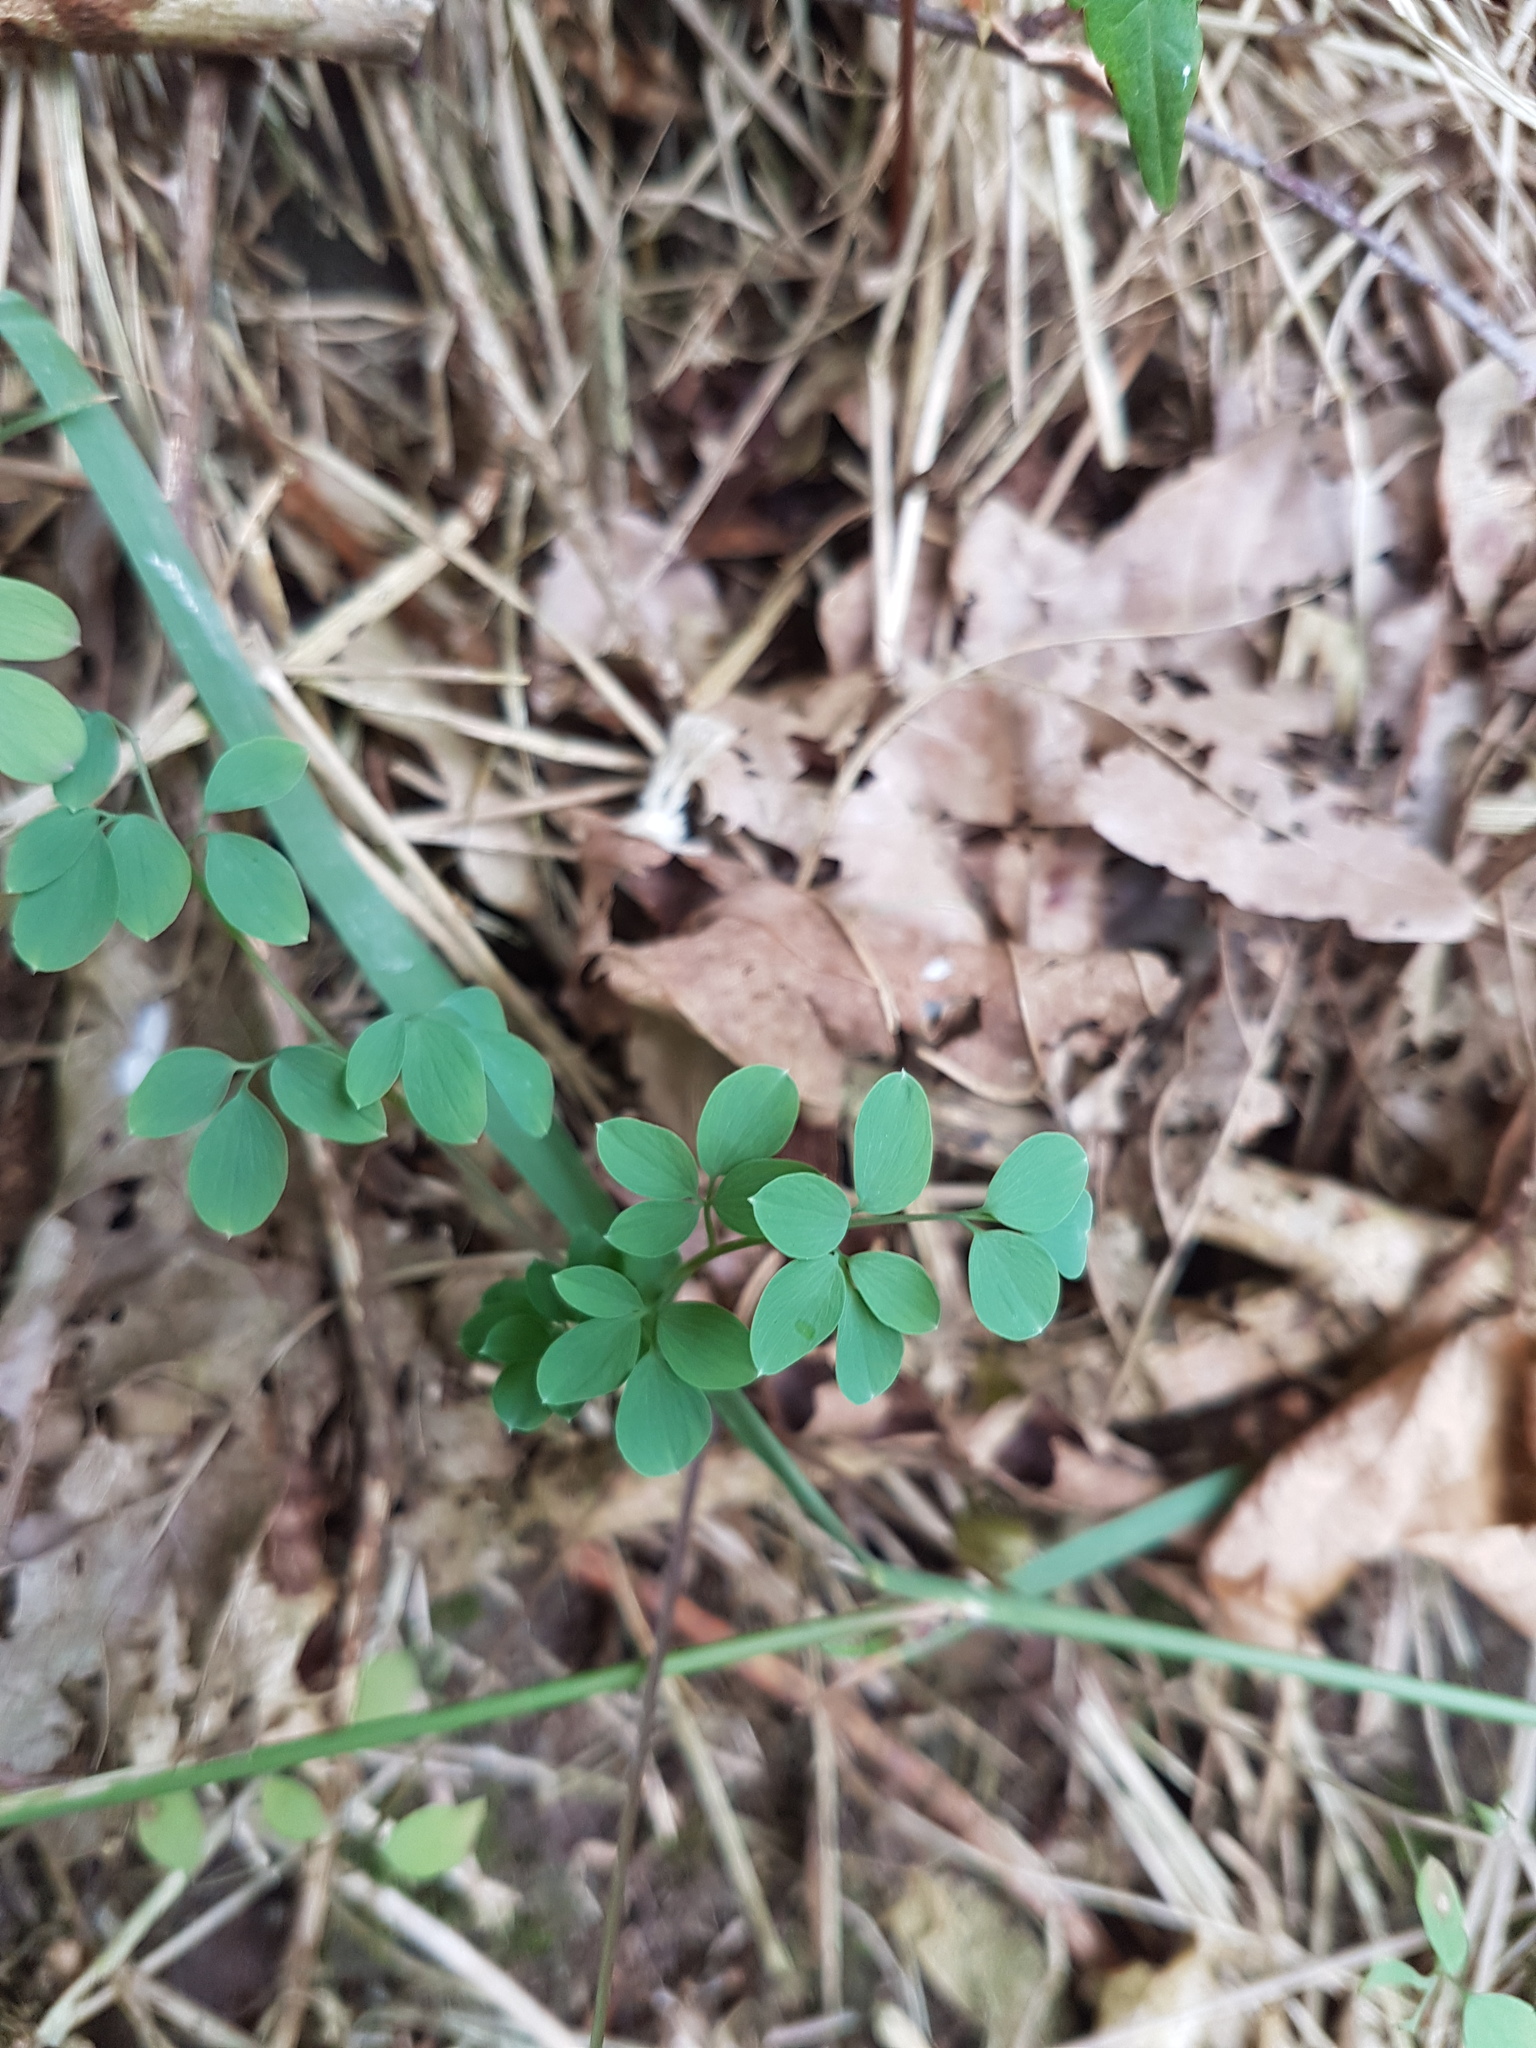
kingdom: Plantae
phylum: Tracheophyta
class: Magnoliopsida
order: Ranunculales
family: Papaveraceae
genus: Ceratocapnos
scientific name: Ceratocapnos claviculata
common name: Climbing corydalis
